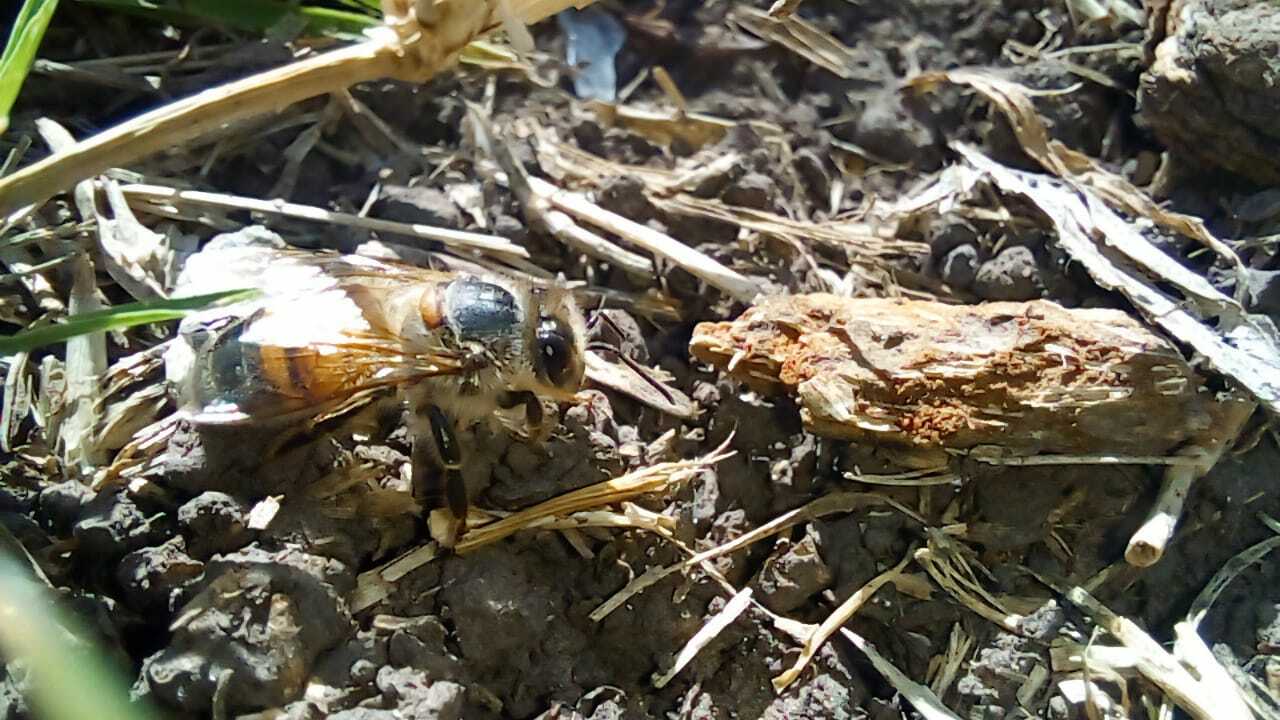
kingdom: Animalia
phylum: Arthropoda
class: Insecta
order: Hymenoptera
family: Apidae
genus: Apis
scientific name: Apis mellifera
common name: Honey bee
